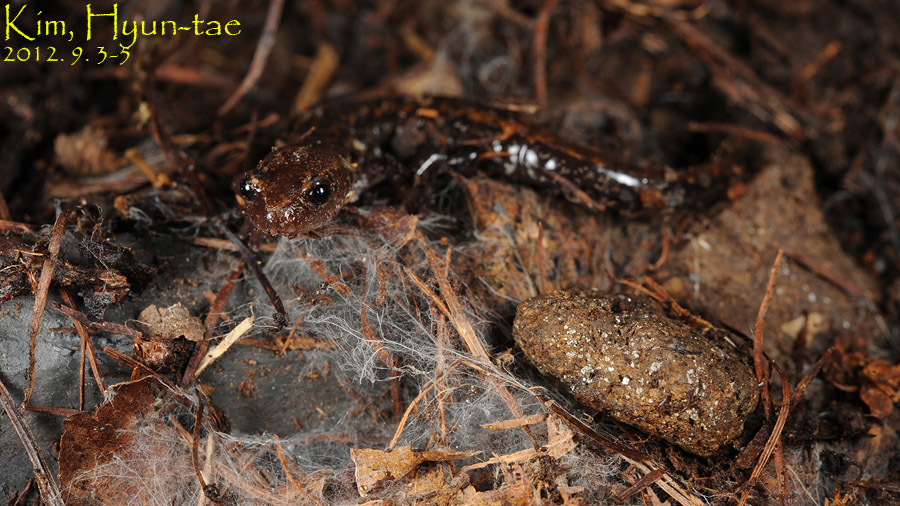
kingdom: Animalia
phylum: Chordata
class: Amphibia
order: Caudata
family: Plethodontidae
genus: Karsenia
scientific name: Karsenia koreana
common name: Korean crevice salamander
